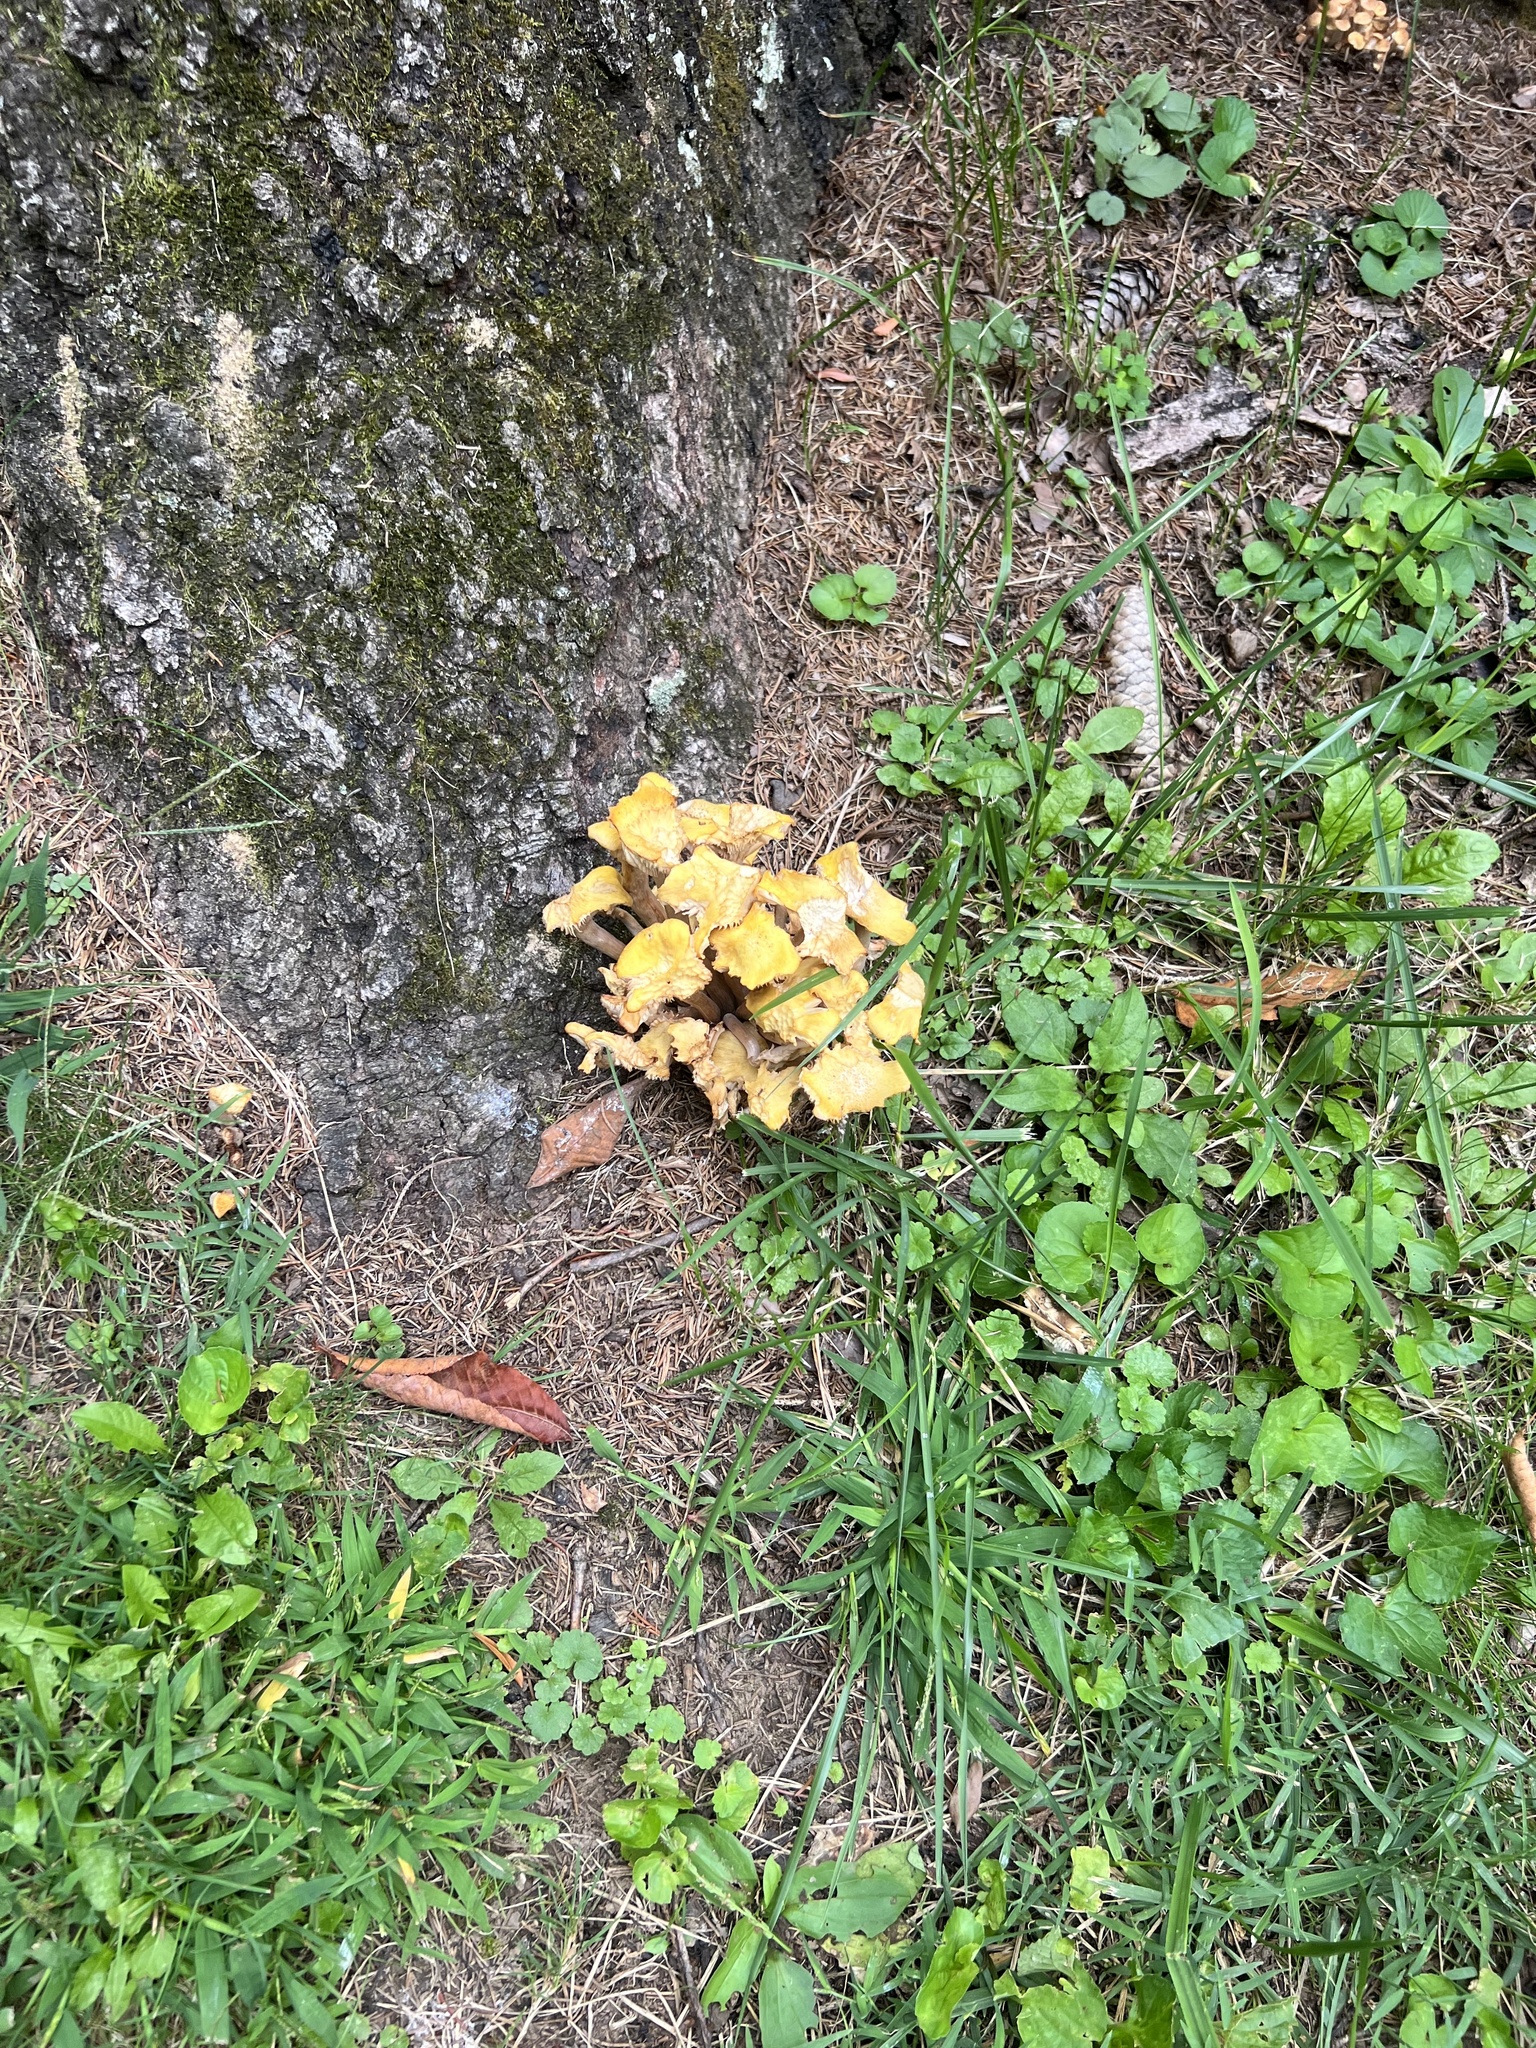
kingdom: Fungi
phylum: Basidiomycota
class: Agaricomycetes
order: Agaricales
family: Physalacriaceae
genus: Desarmillaria
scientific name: Desarmillaria caespitosa
